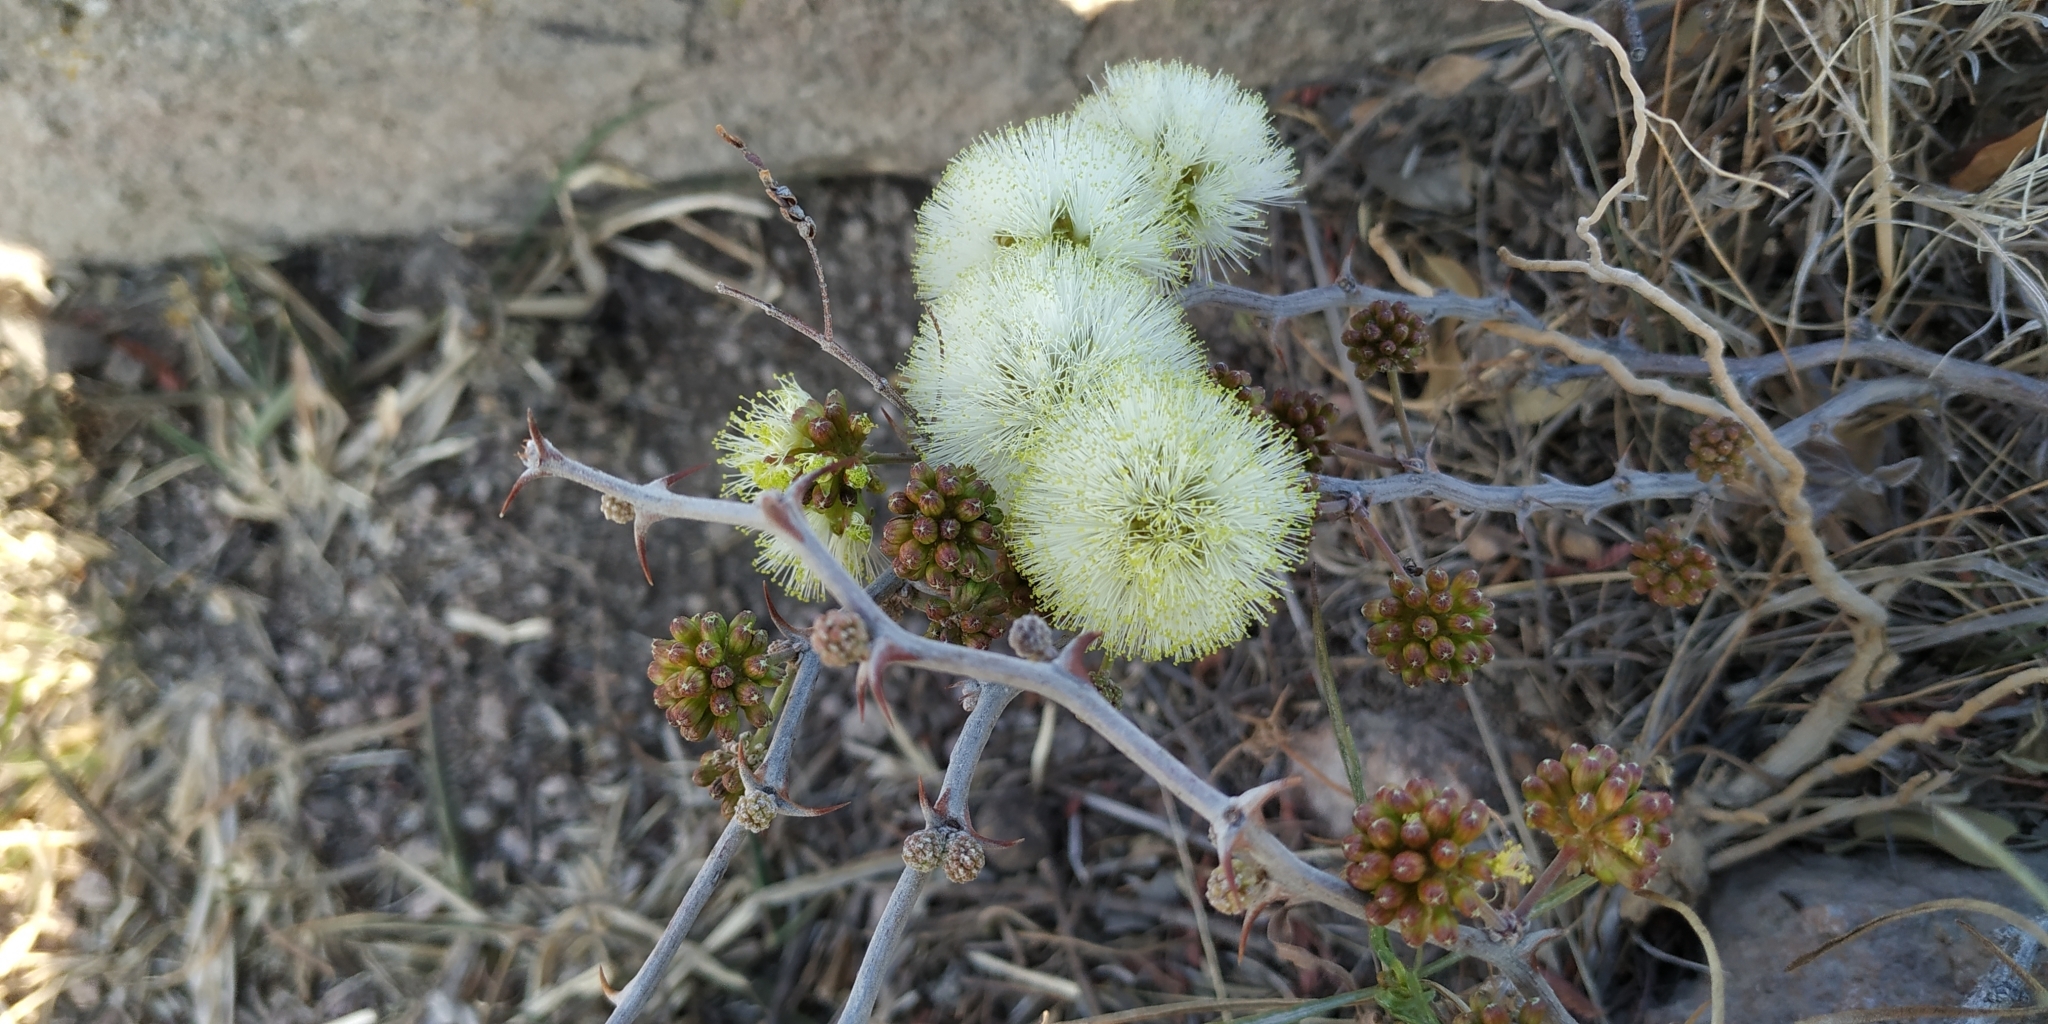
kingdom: Plantae
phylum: Tracheophyta
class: Magnoliopsida
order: Fabales
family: Fabaceae
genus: Mimosa
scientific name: Mimosa aculeaticarpa
